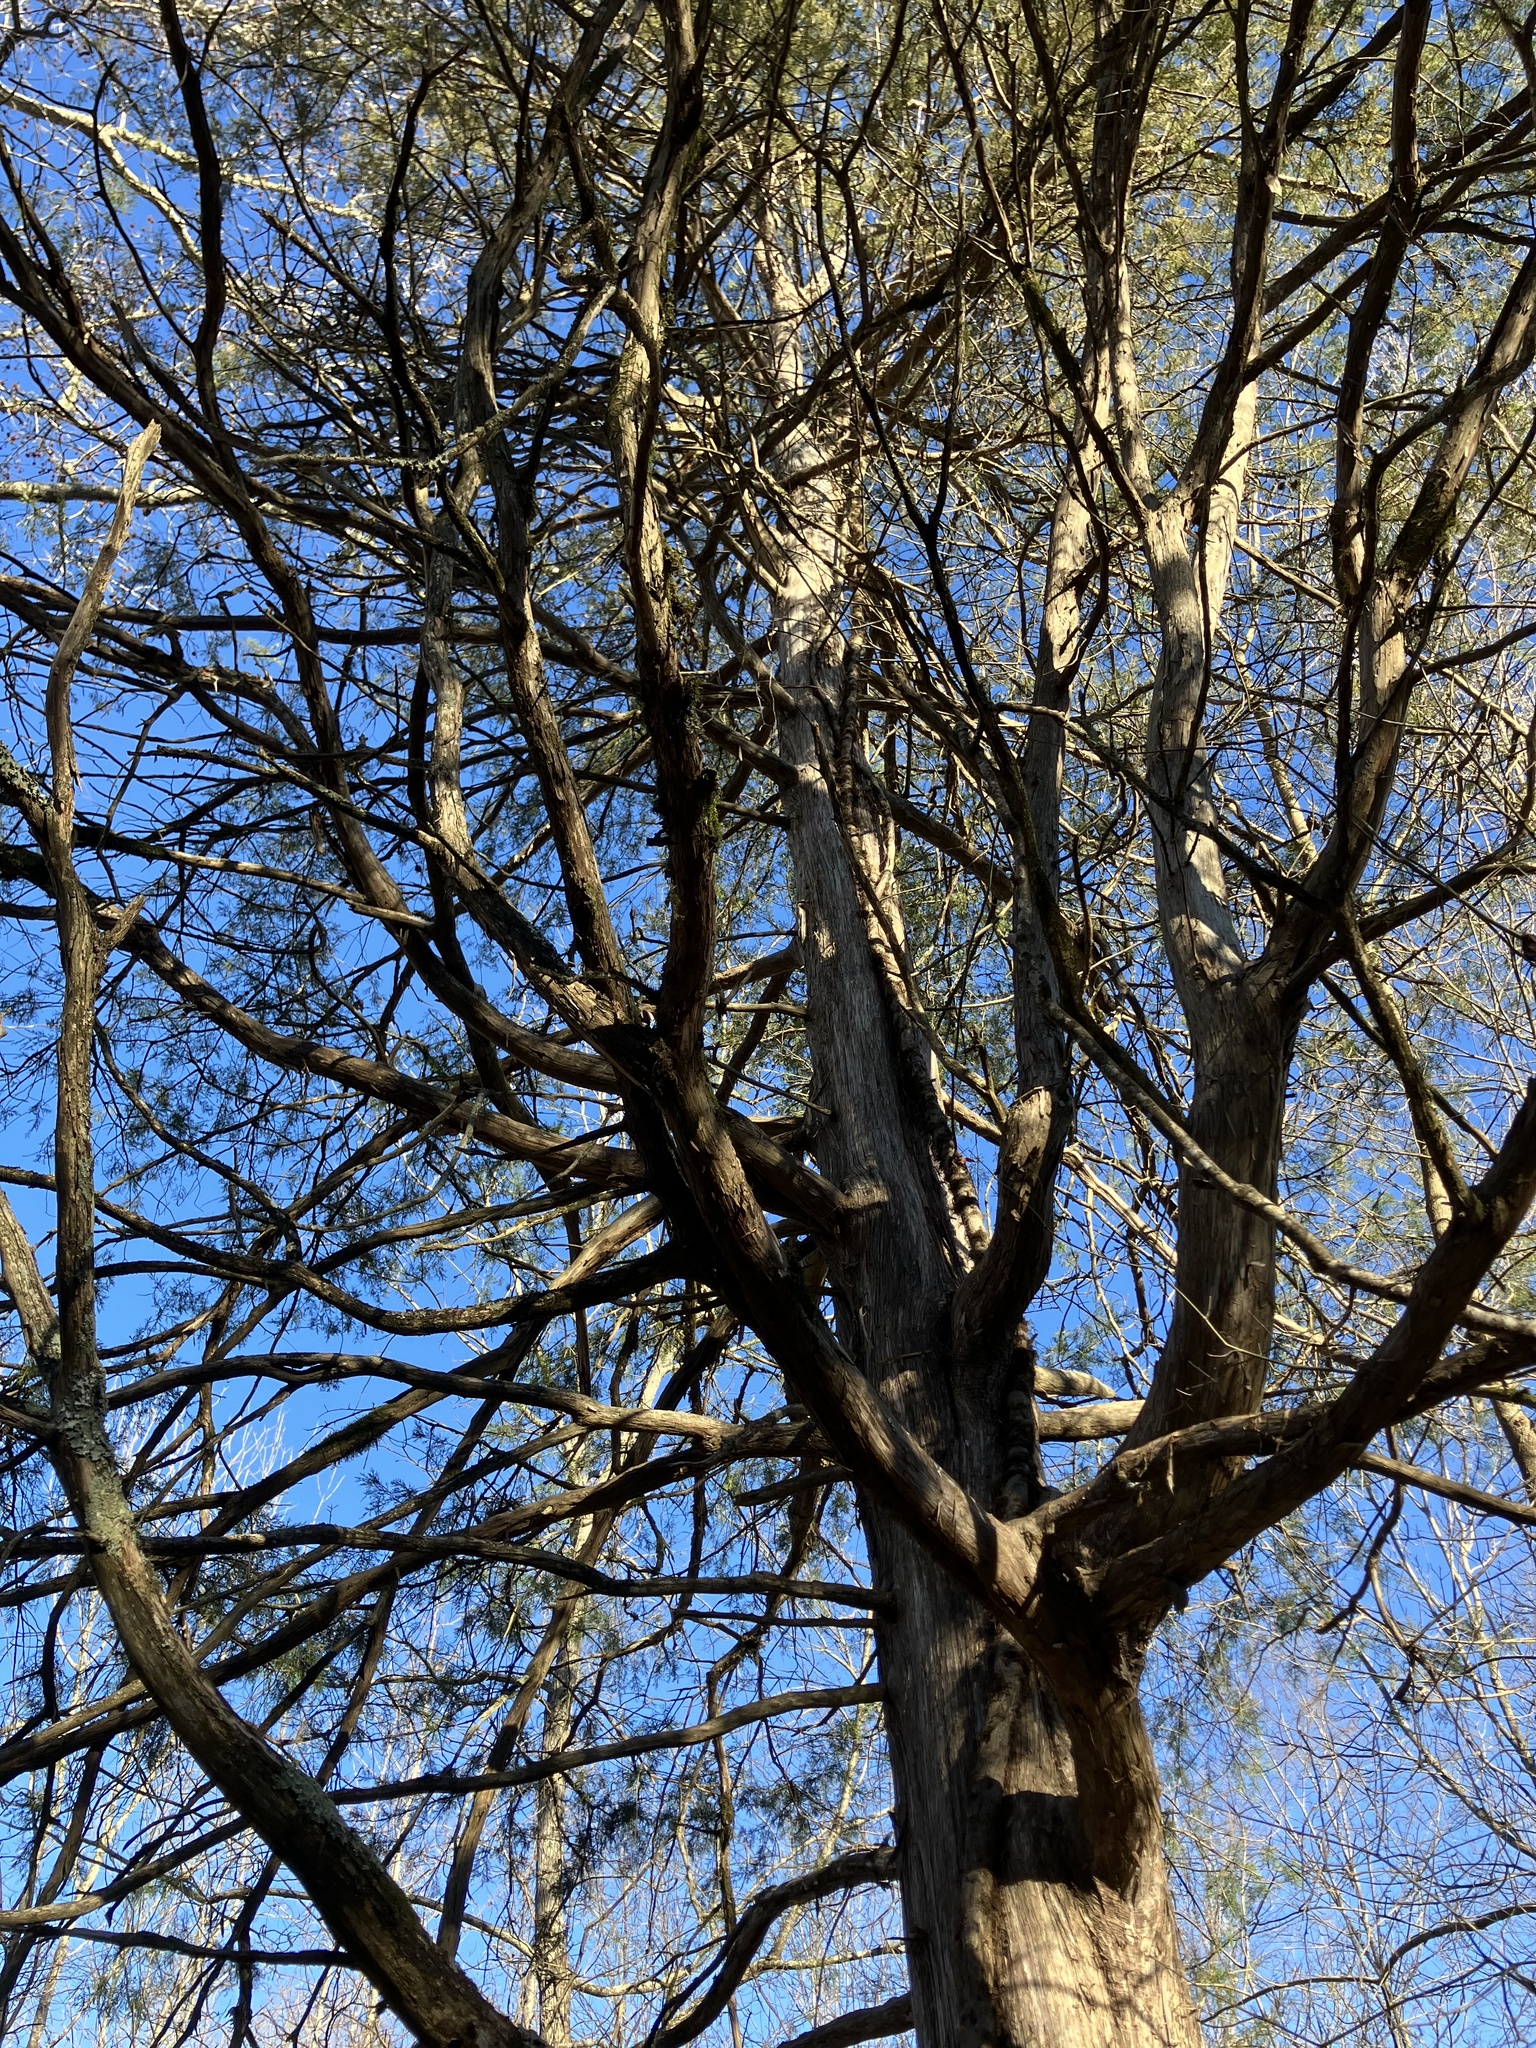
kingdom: Plantae
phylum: Tracheophyta
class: Pinopsida
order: Pinales
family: Cupressaceae
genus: Juniperus
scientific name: Juniperus virginiana
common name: Red juniper
